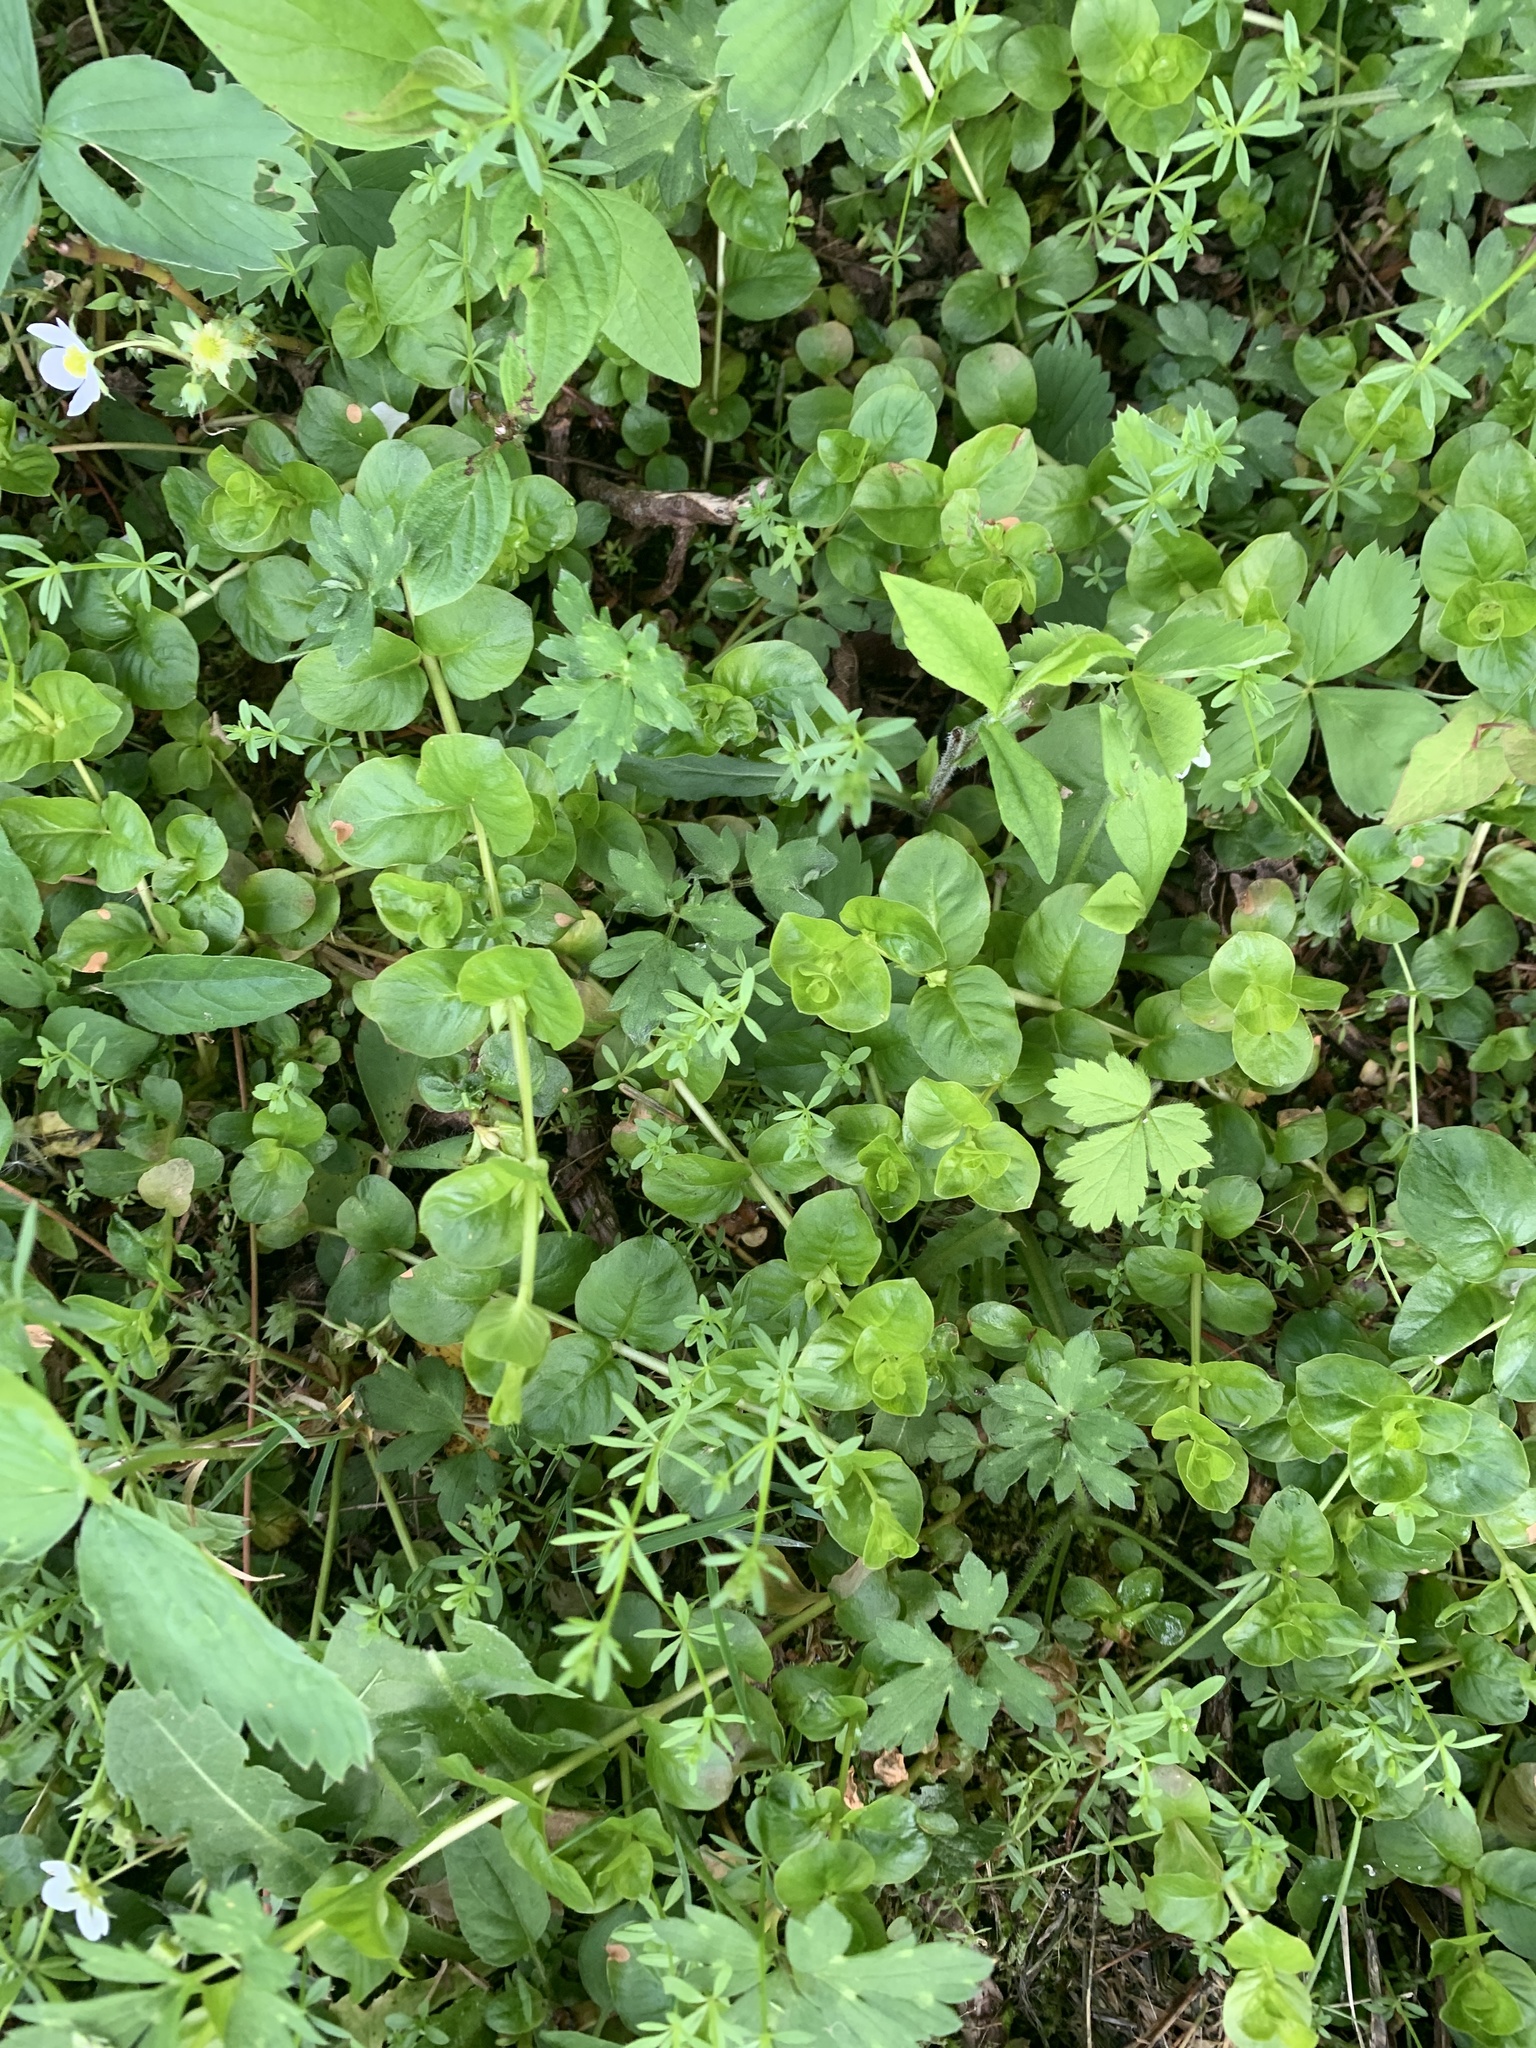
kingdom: Plantae
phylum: Tracheophyta
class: Magnoliopsida
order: Ericales
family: Primulaceae
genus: Lysimachia
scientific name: Lysimachia nummularia
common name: Moneywort
